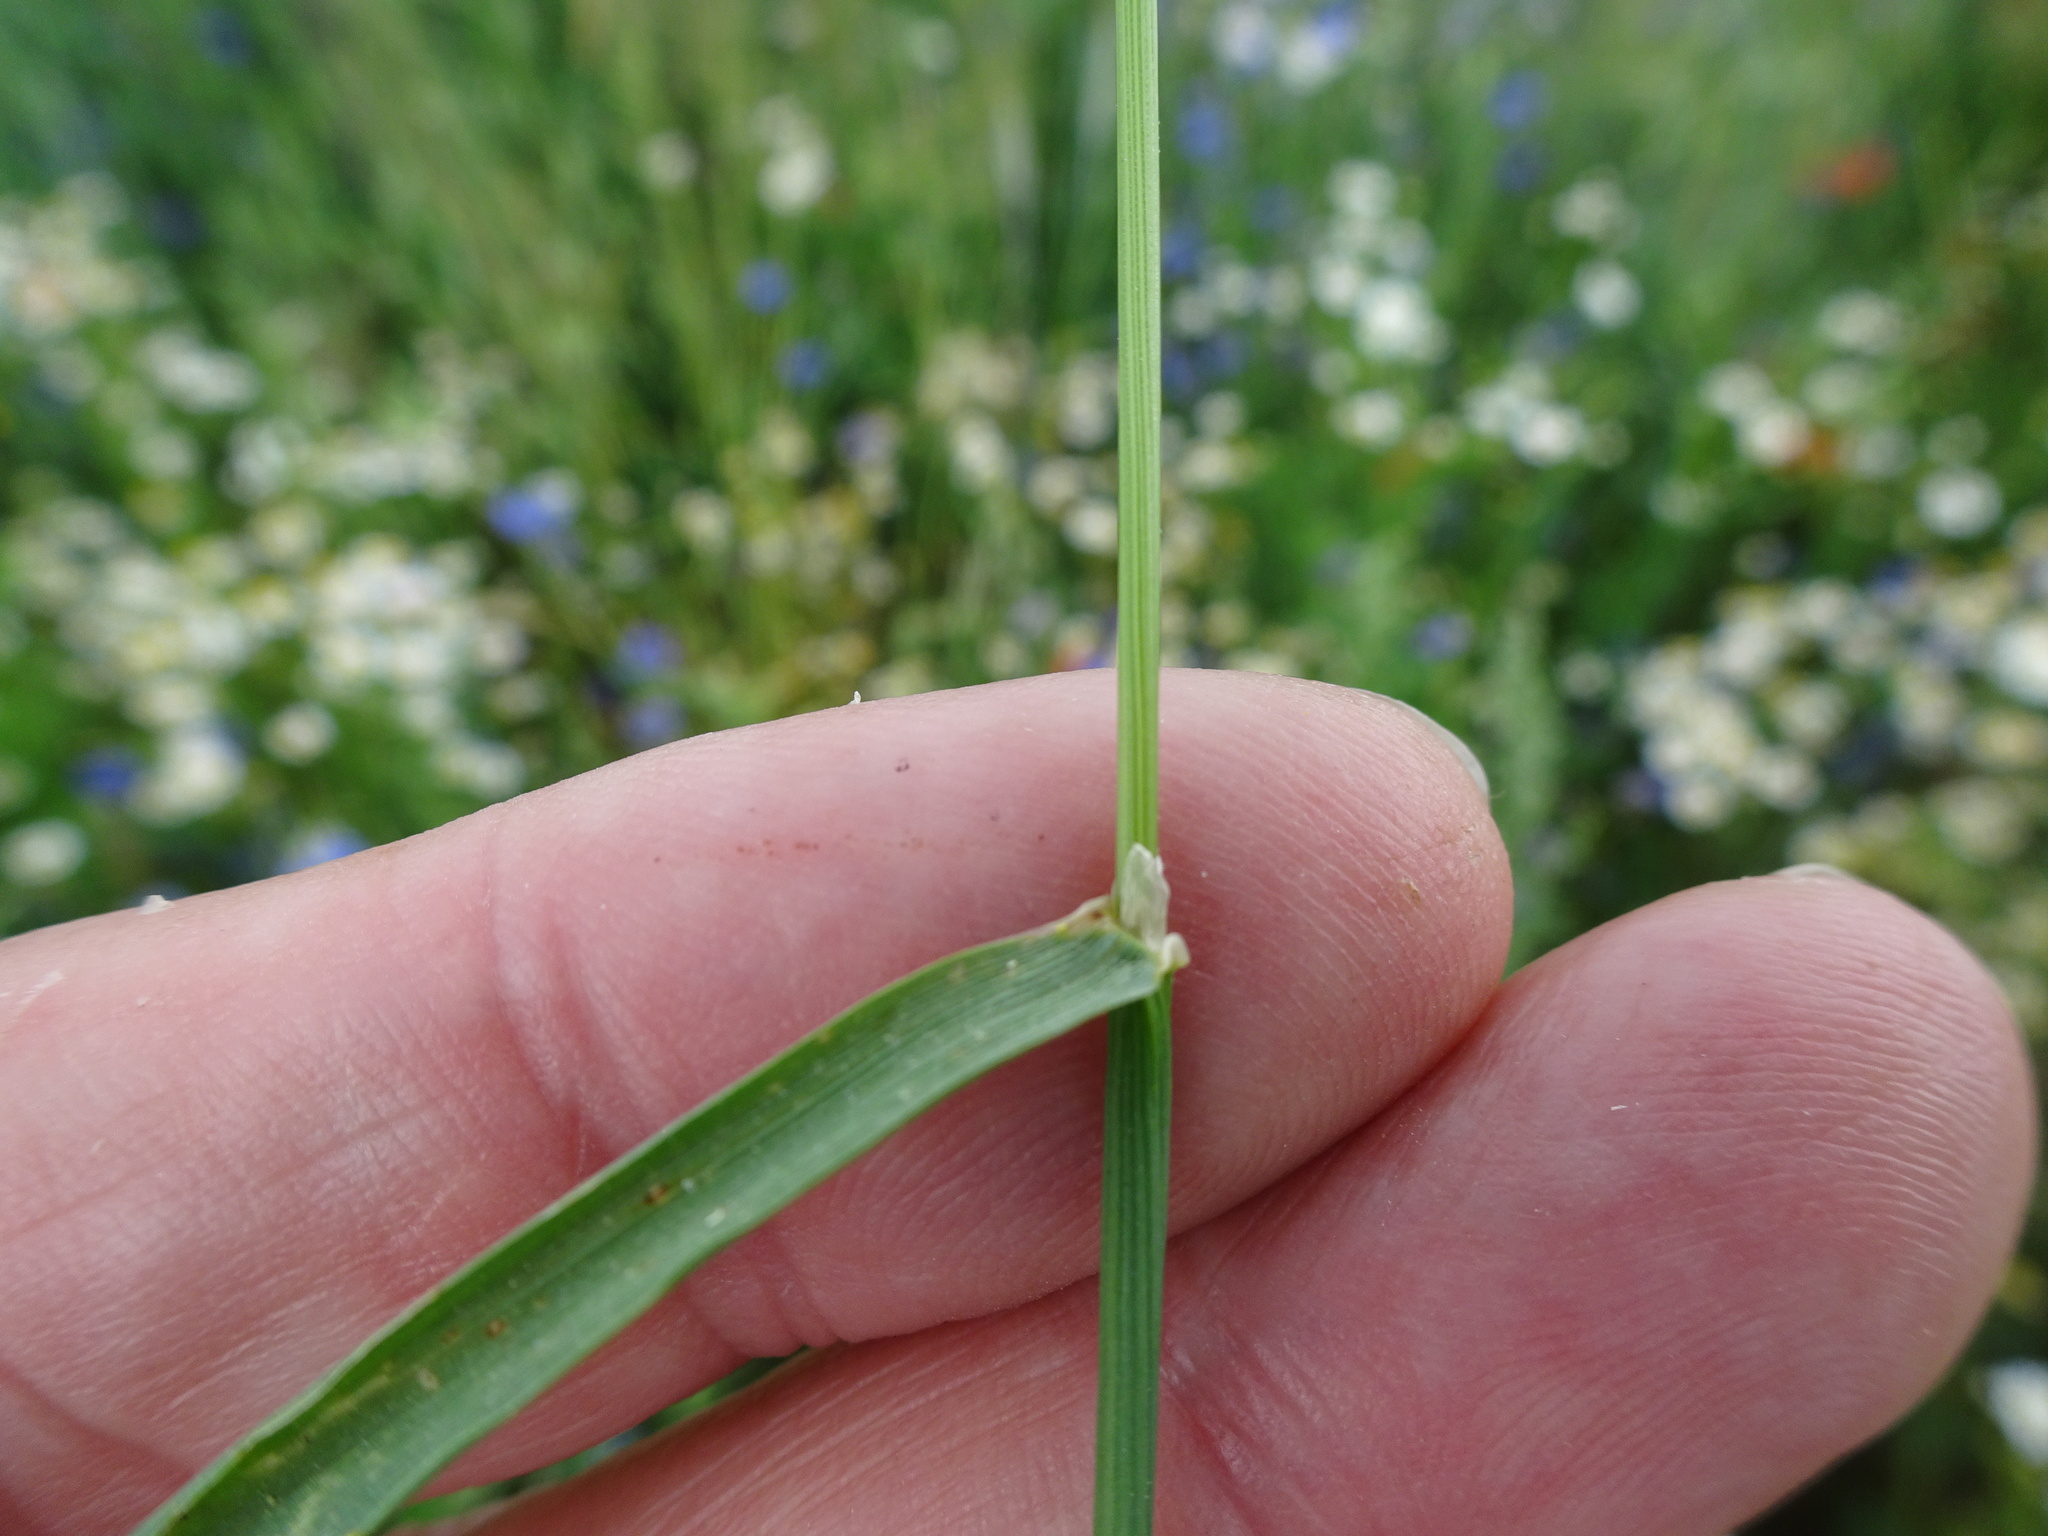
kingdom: Plantae
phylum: Tracheophyta
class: Liliopsida
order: Poales
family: Poaceae
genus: Alopecurus
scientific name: Alopecurus myosuroides
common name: Black-grass
